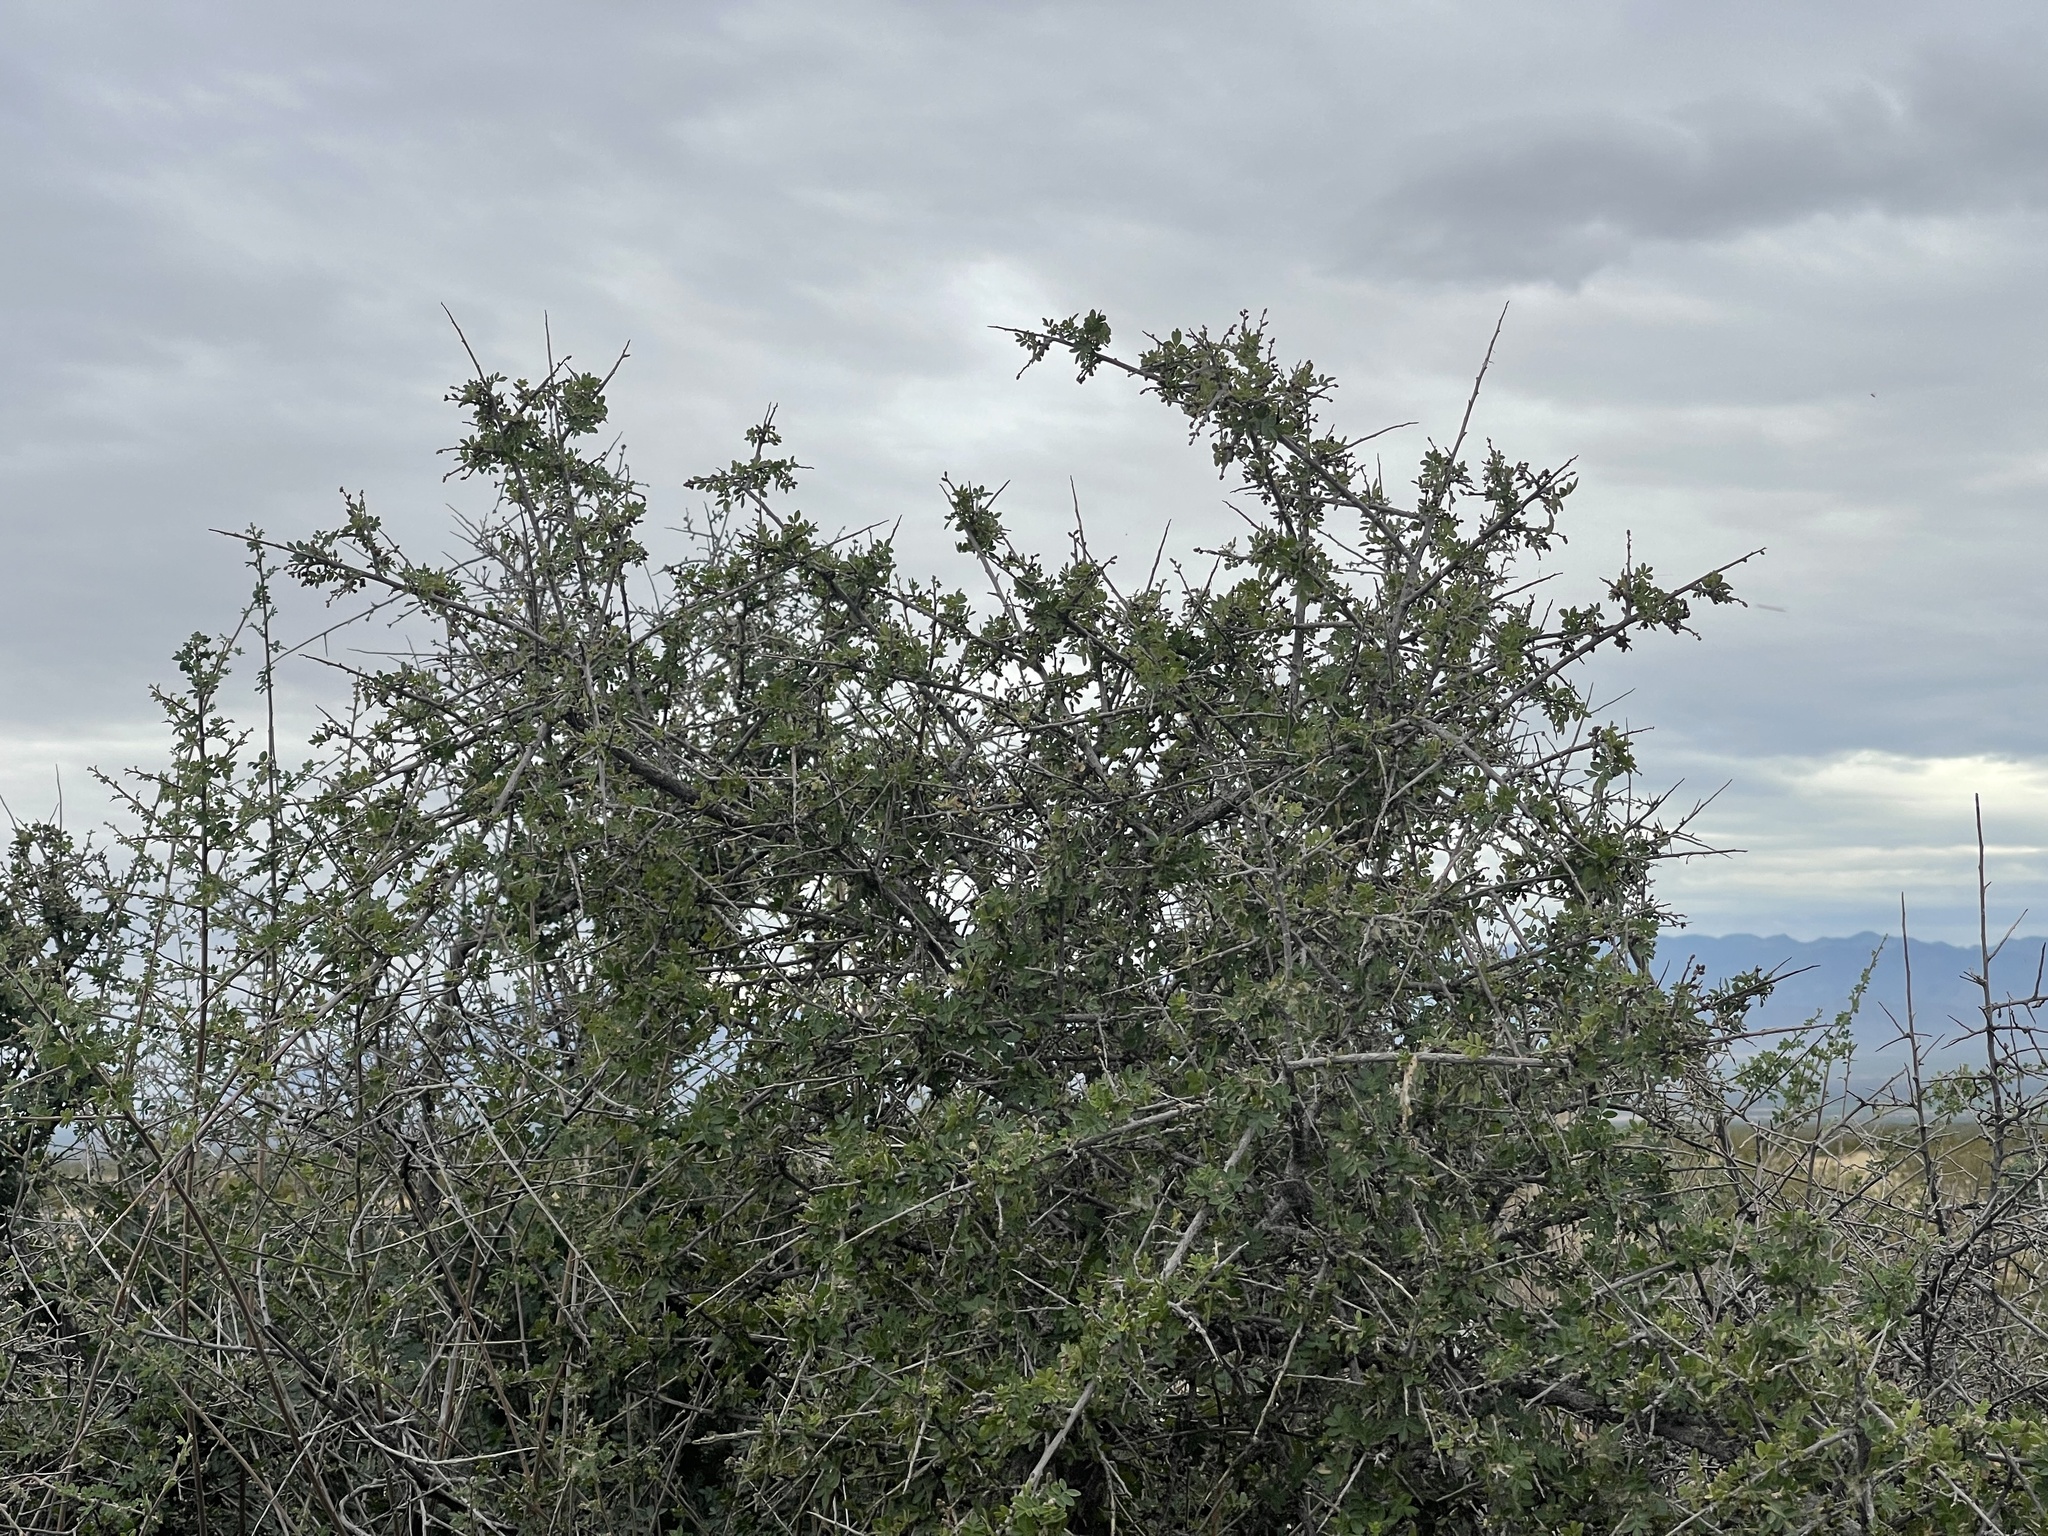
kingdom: Plantae
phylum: Tracheophyta
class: Magnoliopsida
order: Sapindales
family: Anacardiaceae
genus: Rhus
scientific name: Rhus microphylla
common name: Desert sumac
